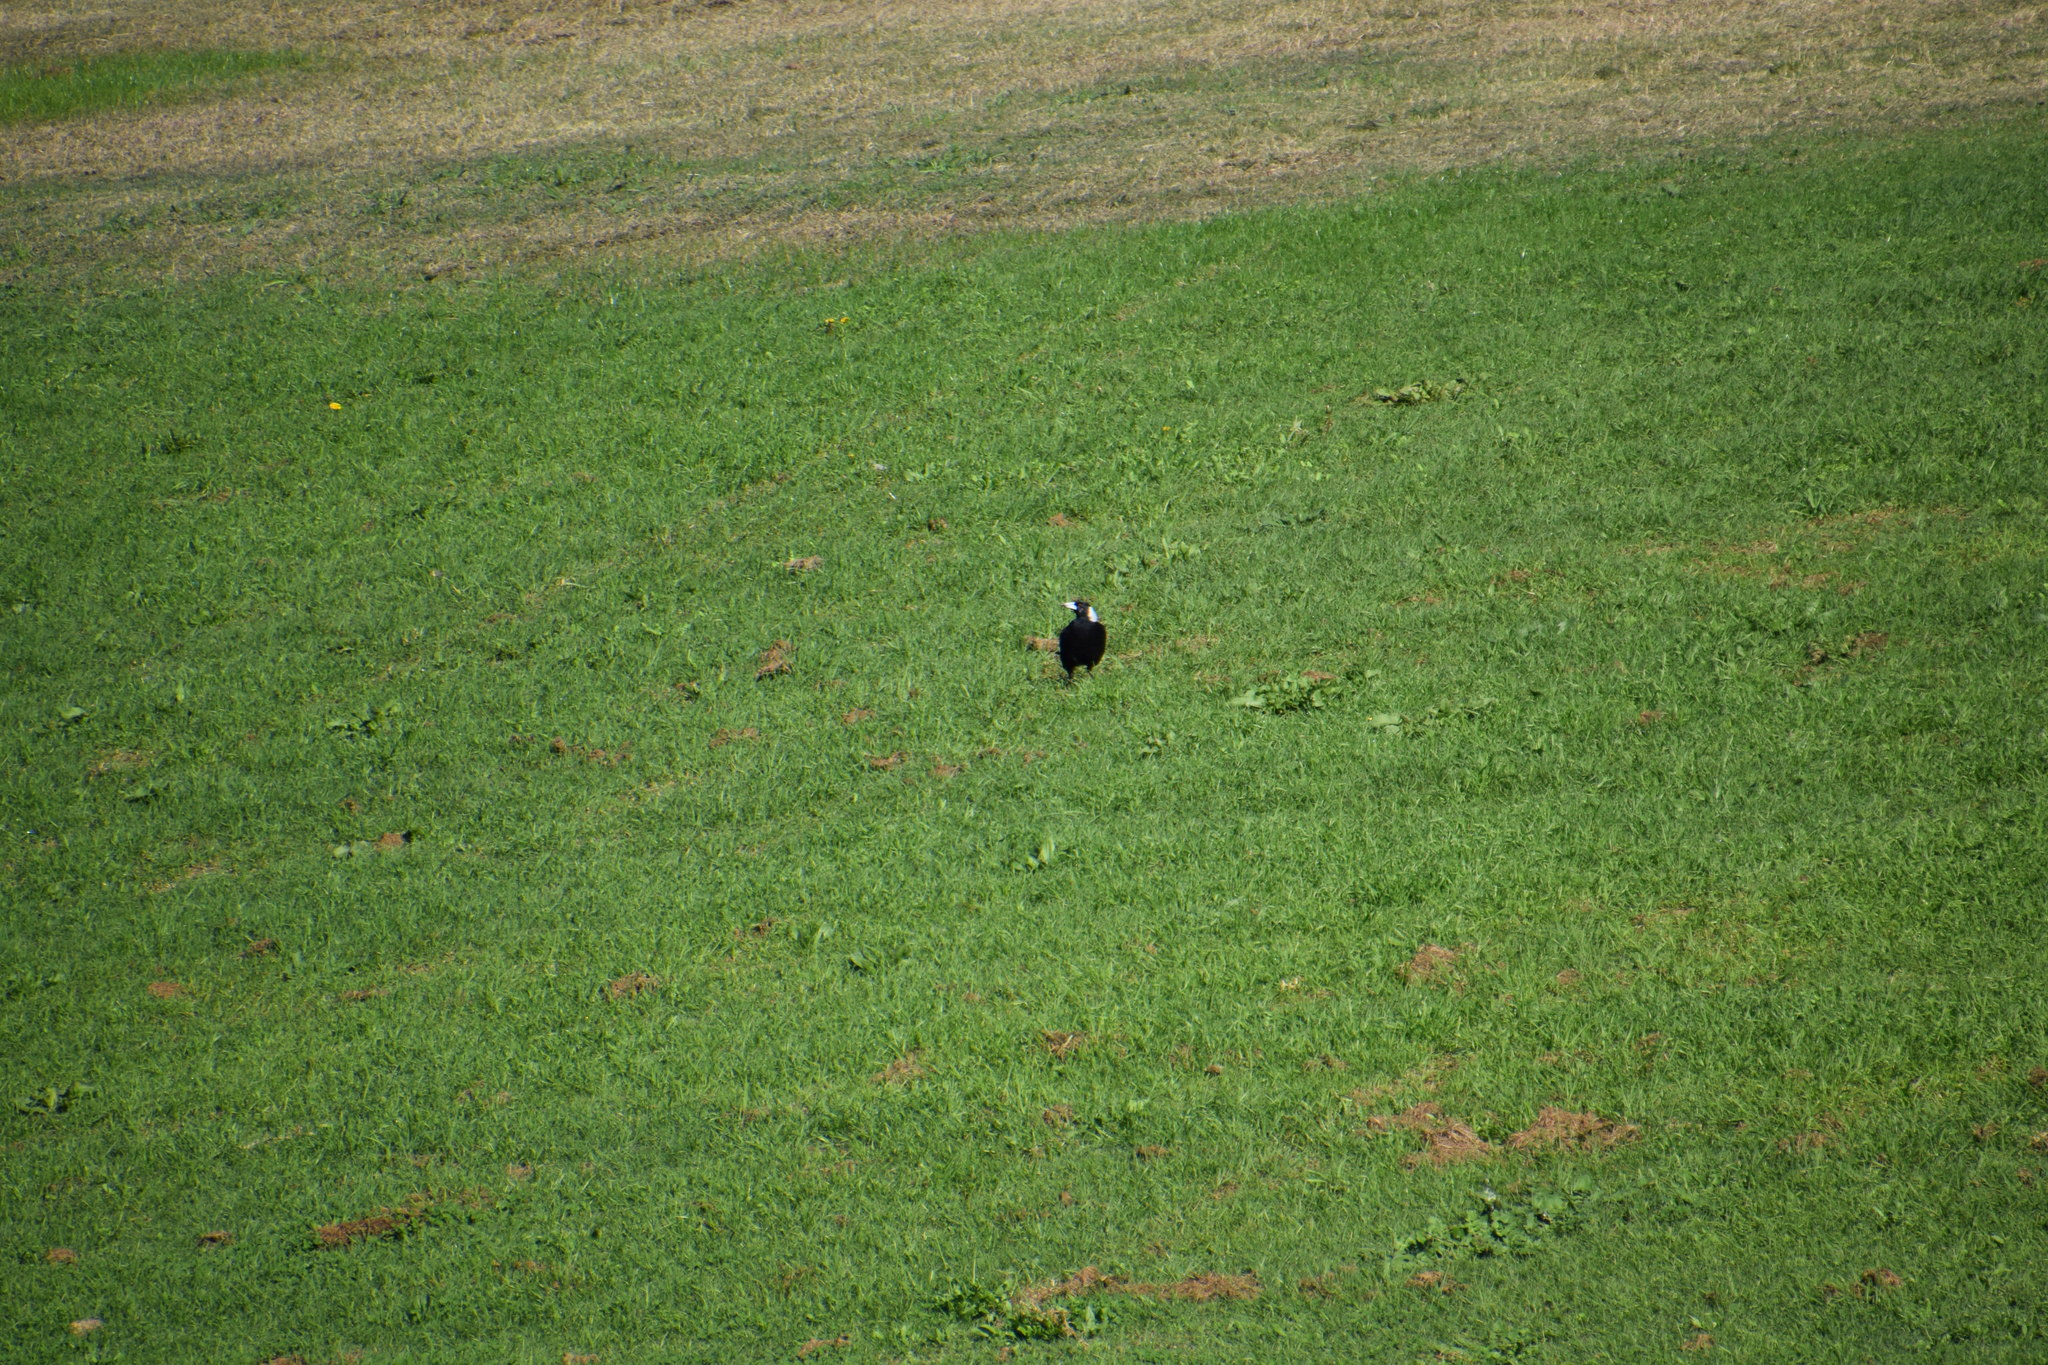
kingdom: Animalia
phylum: Chordata
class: Aves
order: Passeriformes
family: Cracticidae
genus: Gymnorhina
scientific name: Gymnorhina tibicen
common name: Australian magpie
